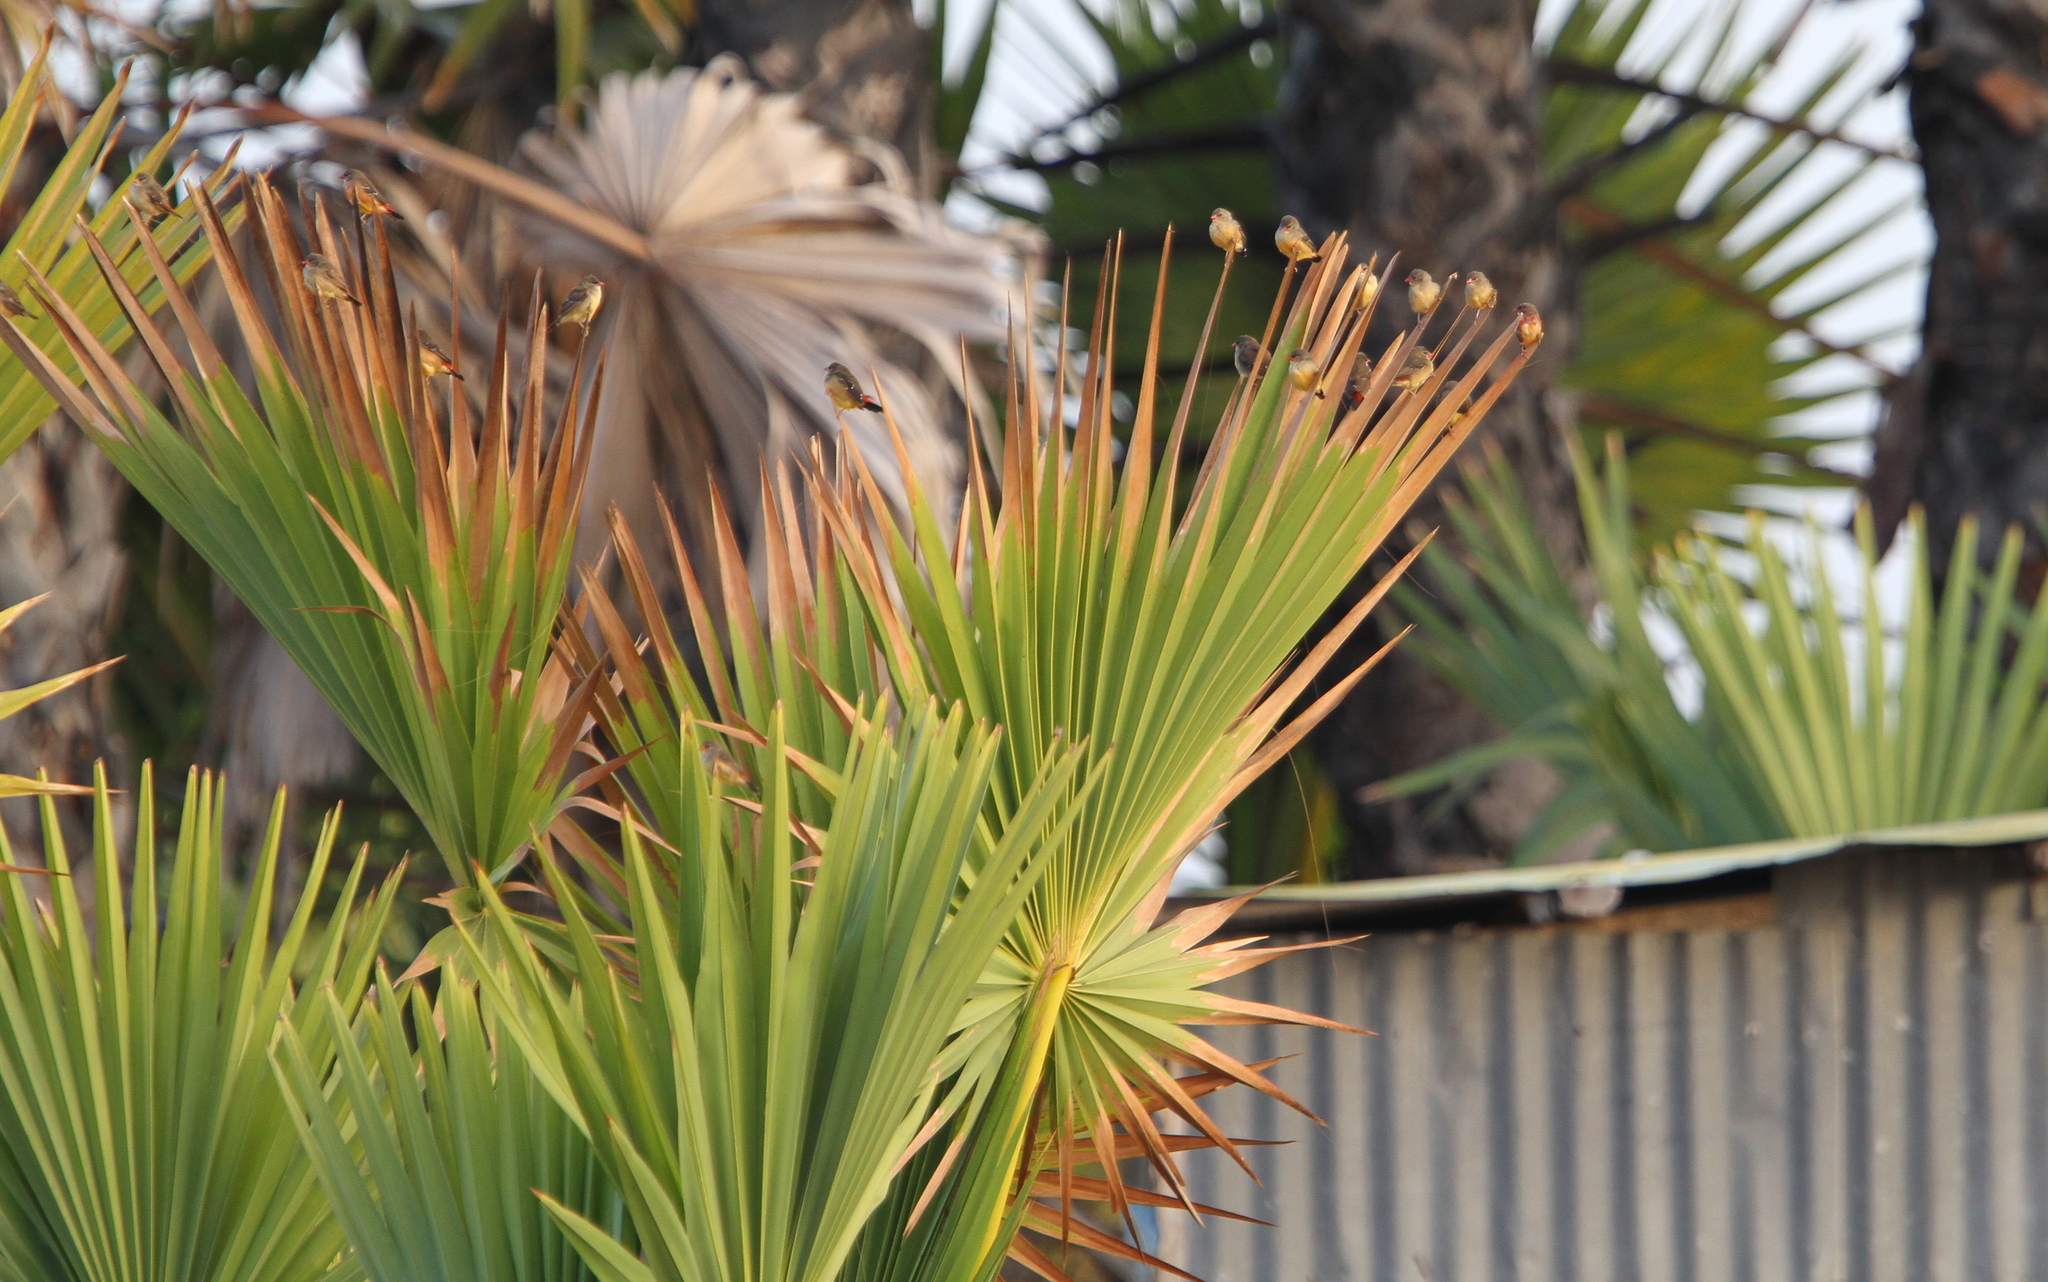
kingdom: Animalia
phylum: Chordata
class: Aves
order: Passeriformes
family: Estrildidae
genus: Amandava
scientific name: Amandava amandava
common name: Red avadavat
